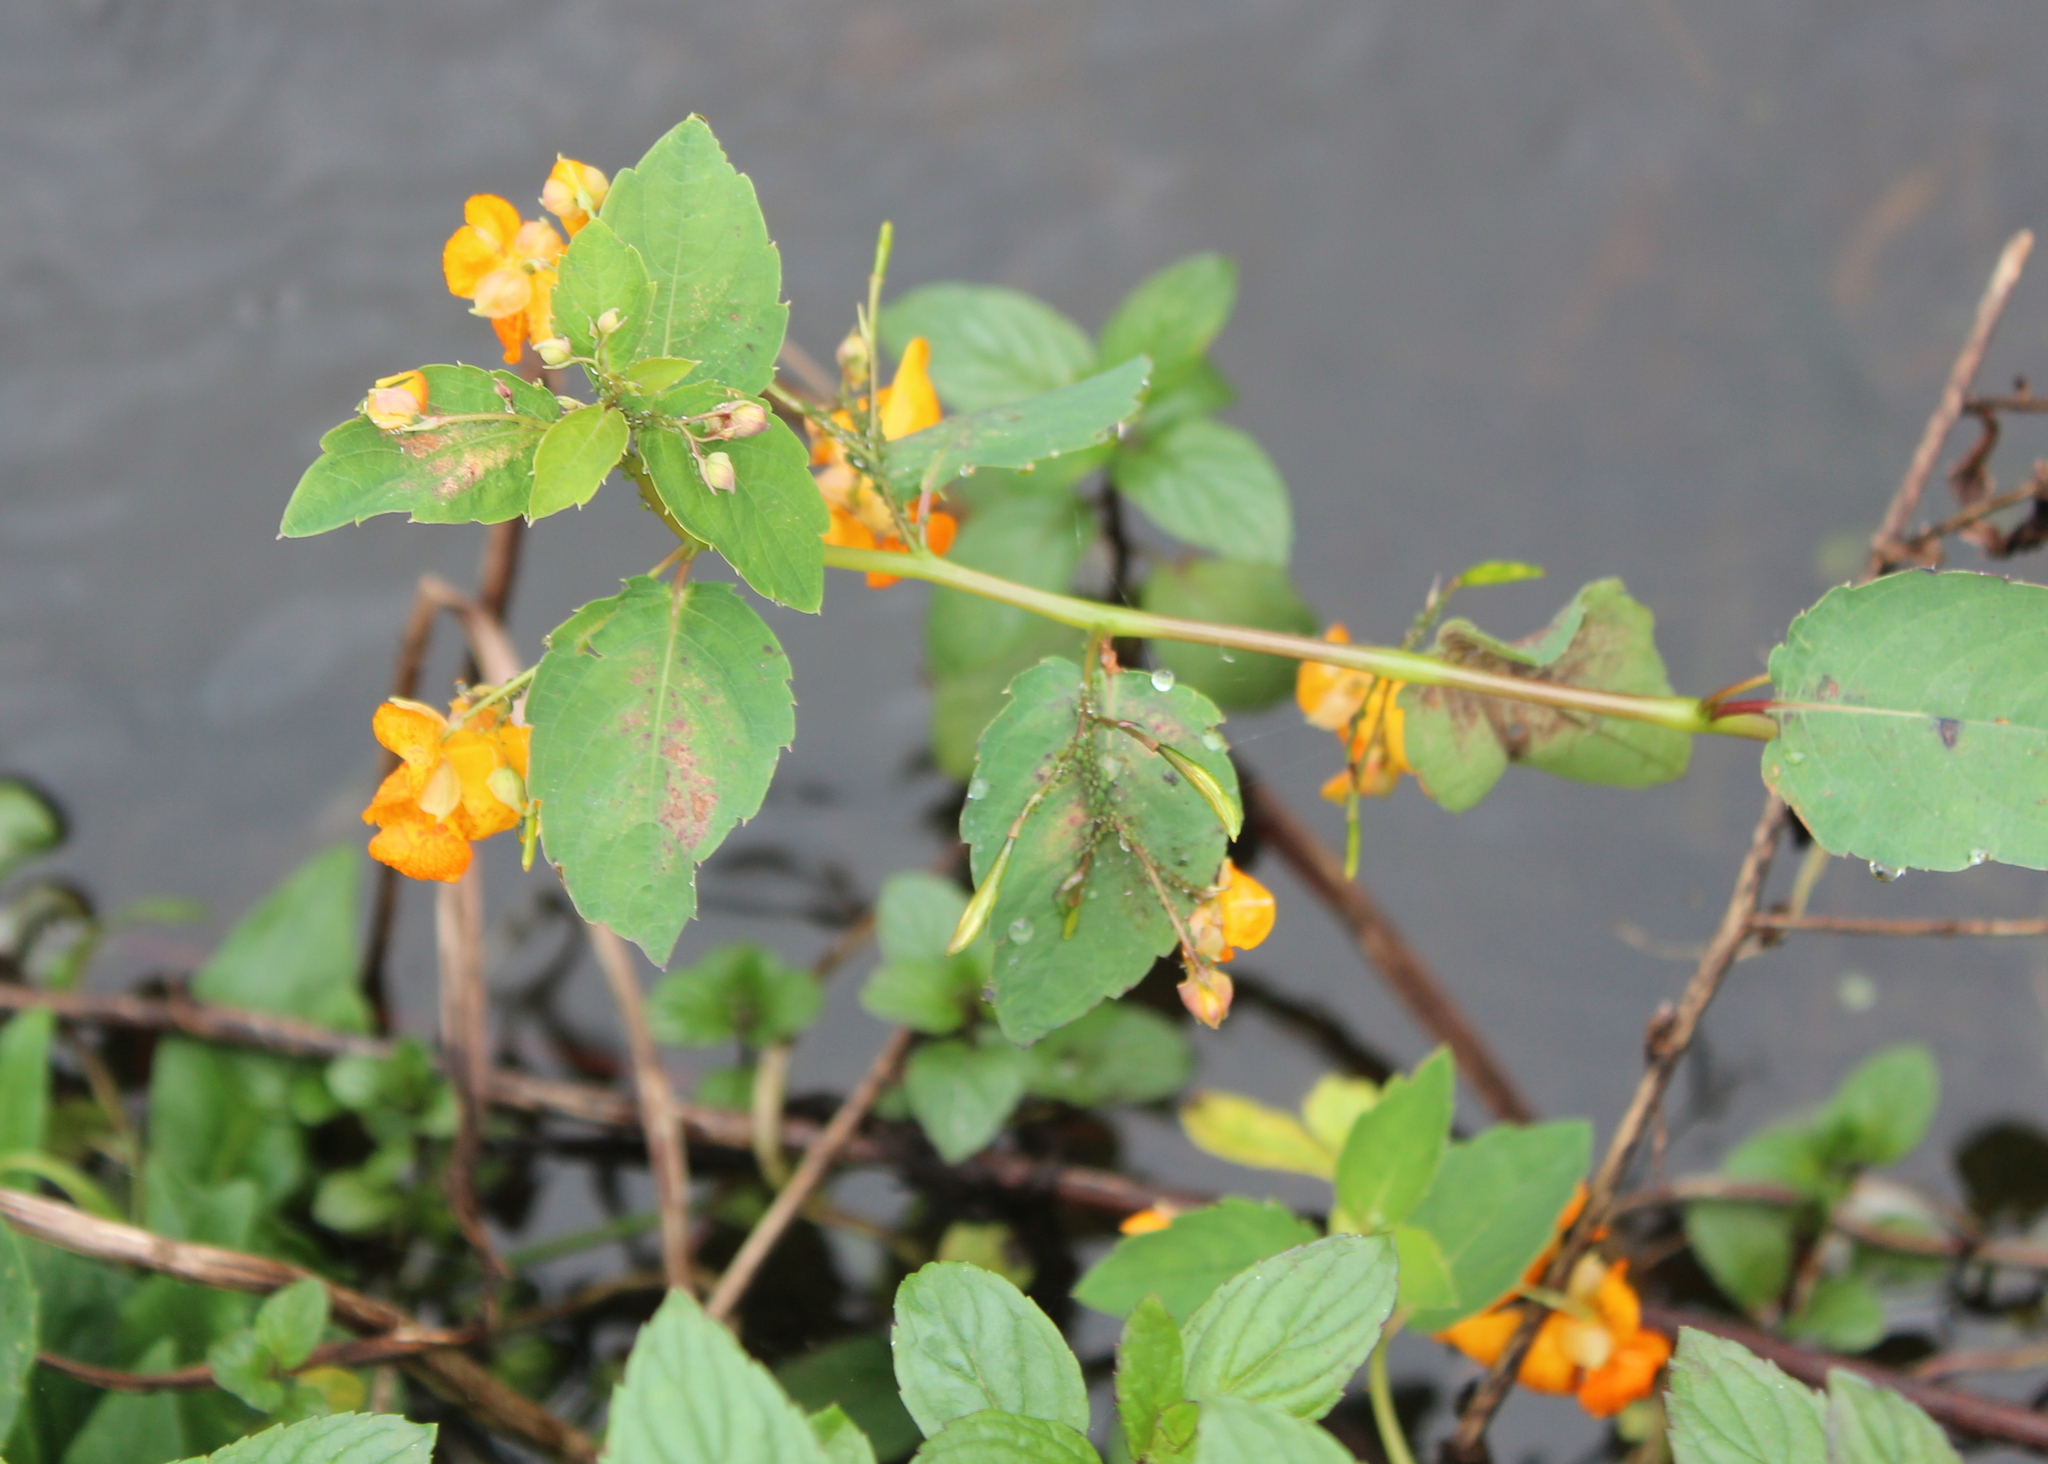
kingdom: Plantae
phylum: Tracheophyta
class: Magnoliopsida
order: Ericales
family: Balsaminaceae
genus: Impatiens
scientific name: Impatiens capensis
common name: Orange balsam
